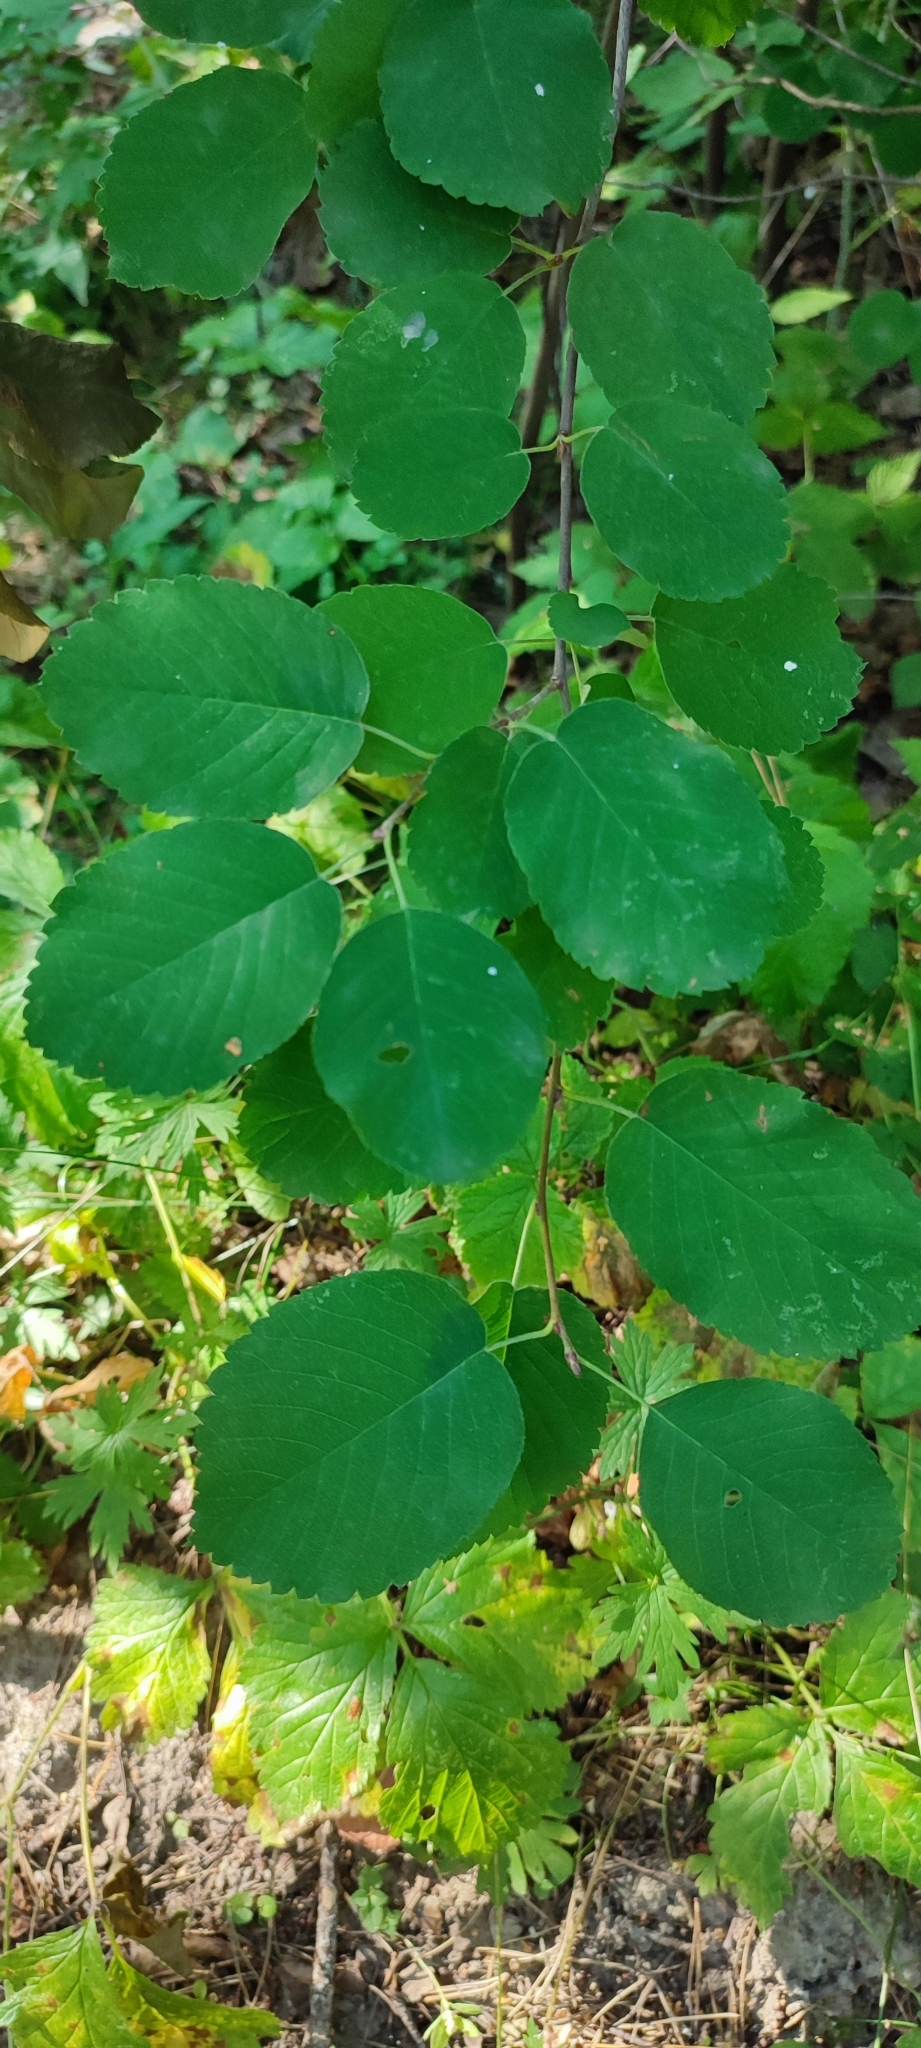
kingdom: Plantae
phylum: Tracheophyta
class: Magnoliopsida
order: Rosales
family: Rosaceae
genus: Amelanchier
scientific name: Amelanchier alnifolia
